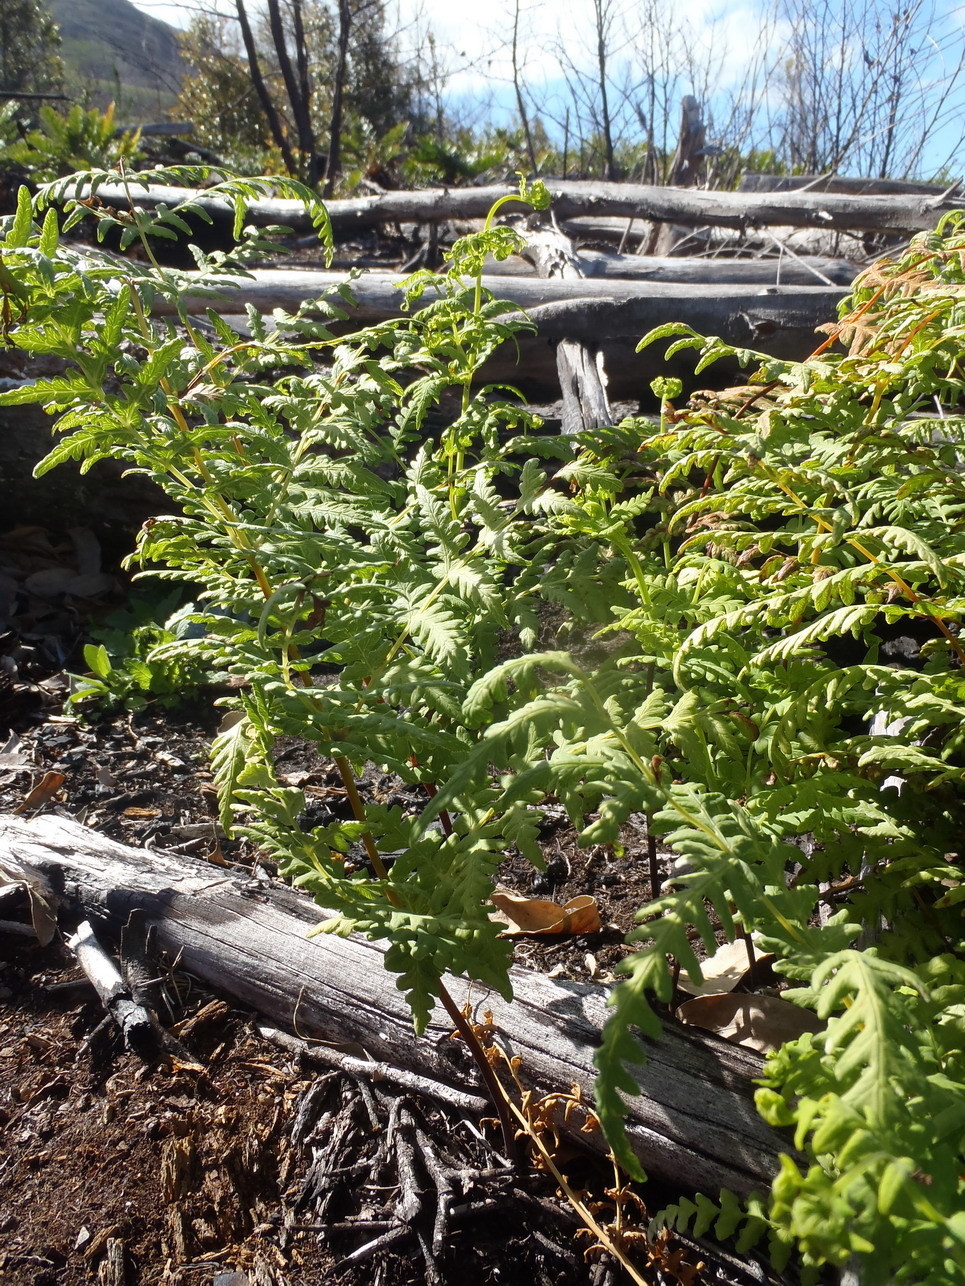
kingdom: Plantae
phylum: Tracheophyta
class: Polypodiopsida
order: Polypodiales
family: Dennstaedtiaceae
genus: Histiopteris
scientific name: Histiopteris incisa
